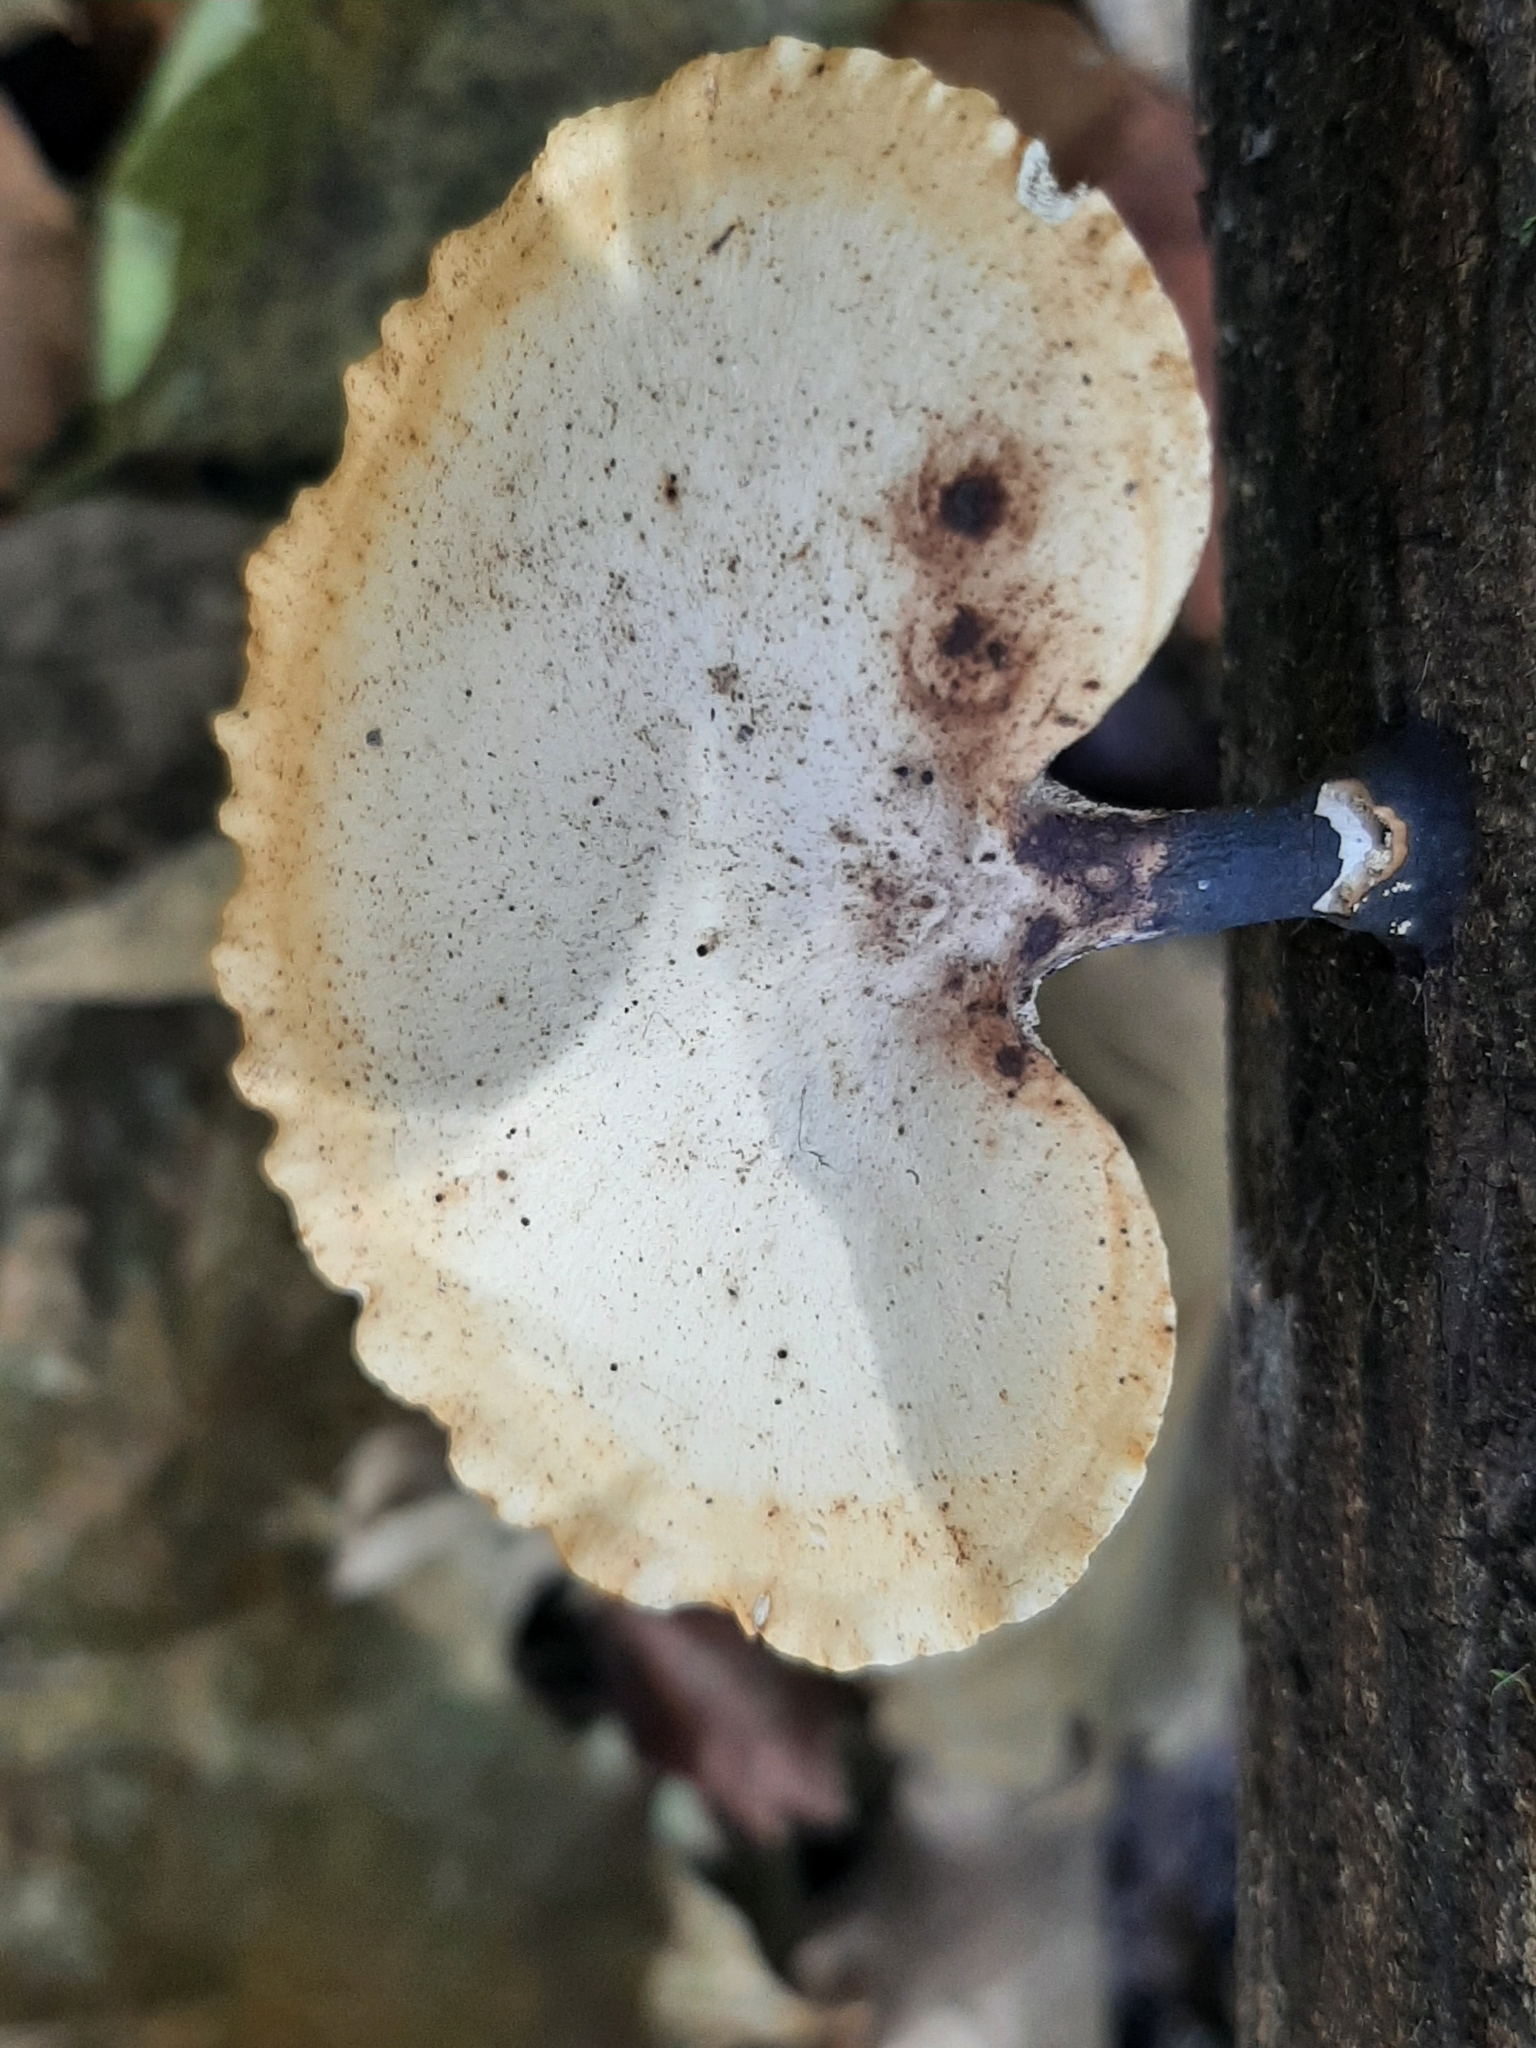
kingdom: Fungi
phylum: Basidiomycota
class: Agaricomycetes
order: Polyporales
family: Polyporaceae
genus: Cerioporus
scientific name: Cerioporus varius
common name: Elegant polypore
